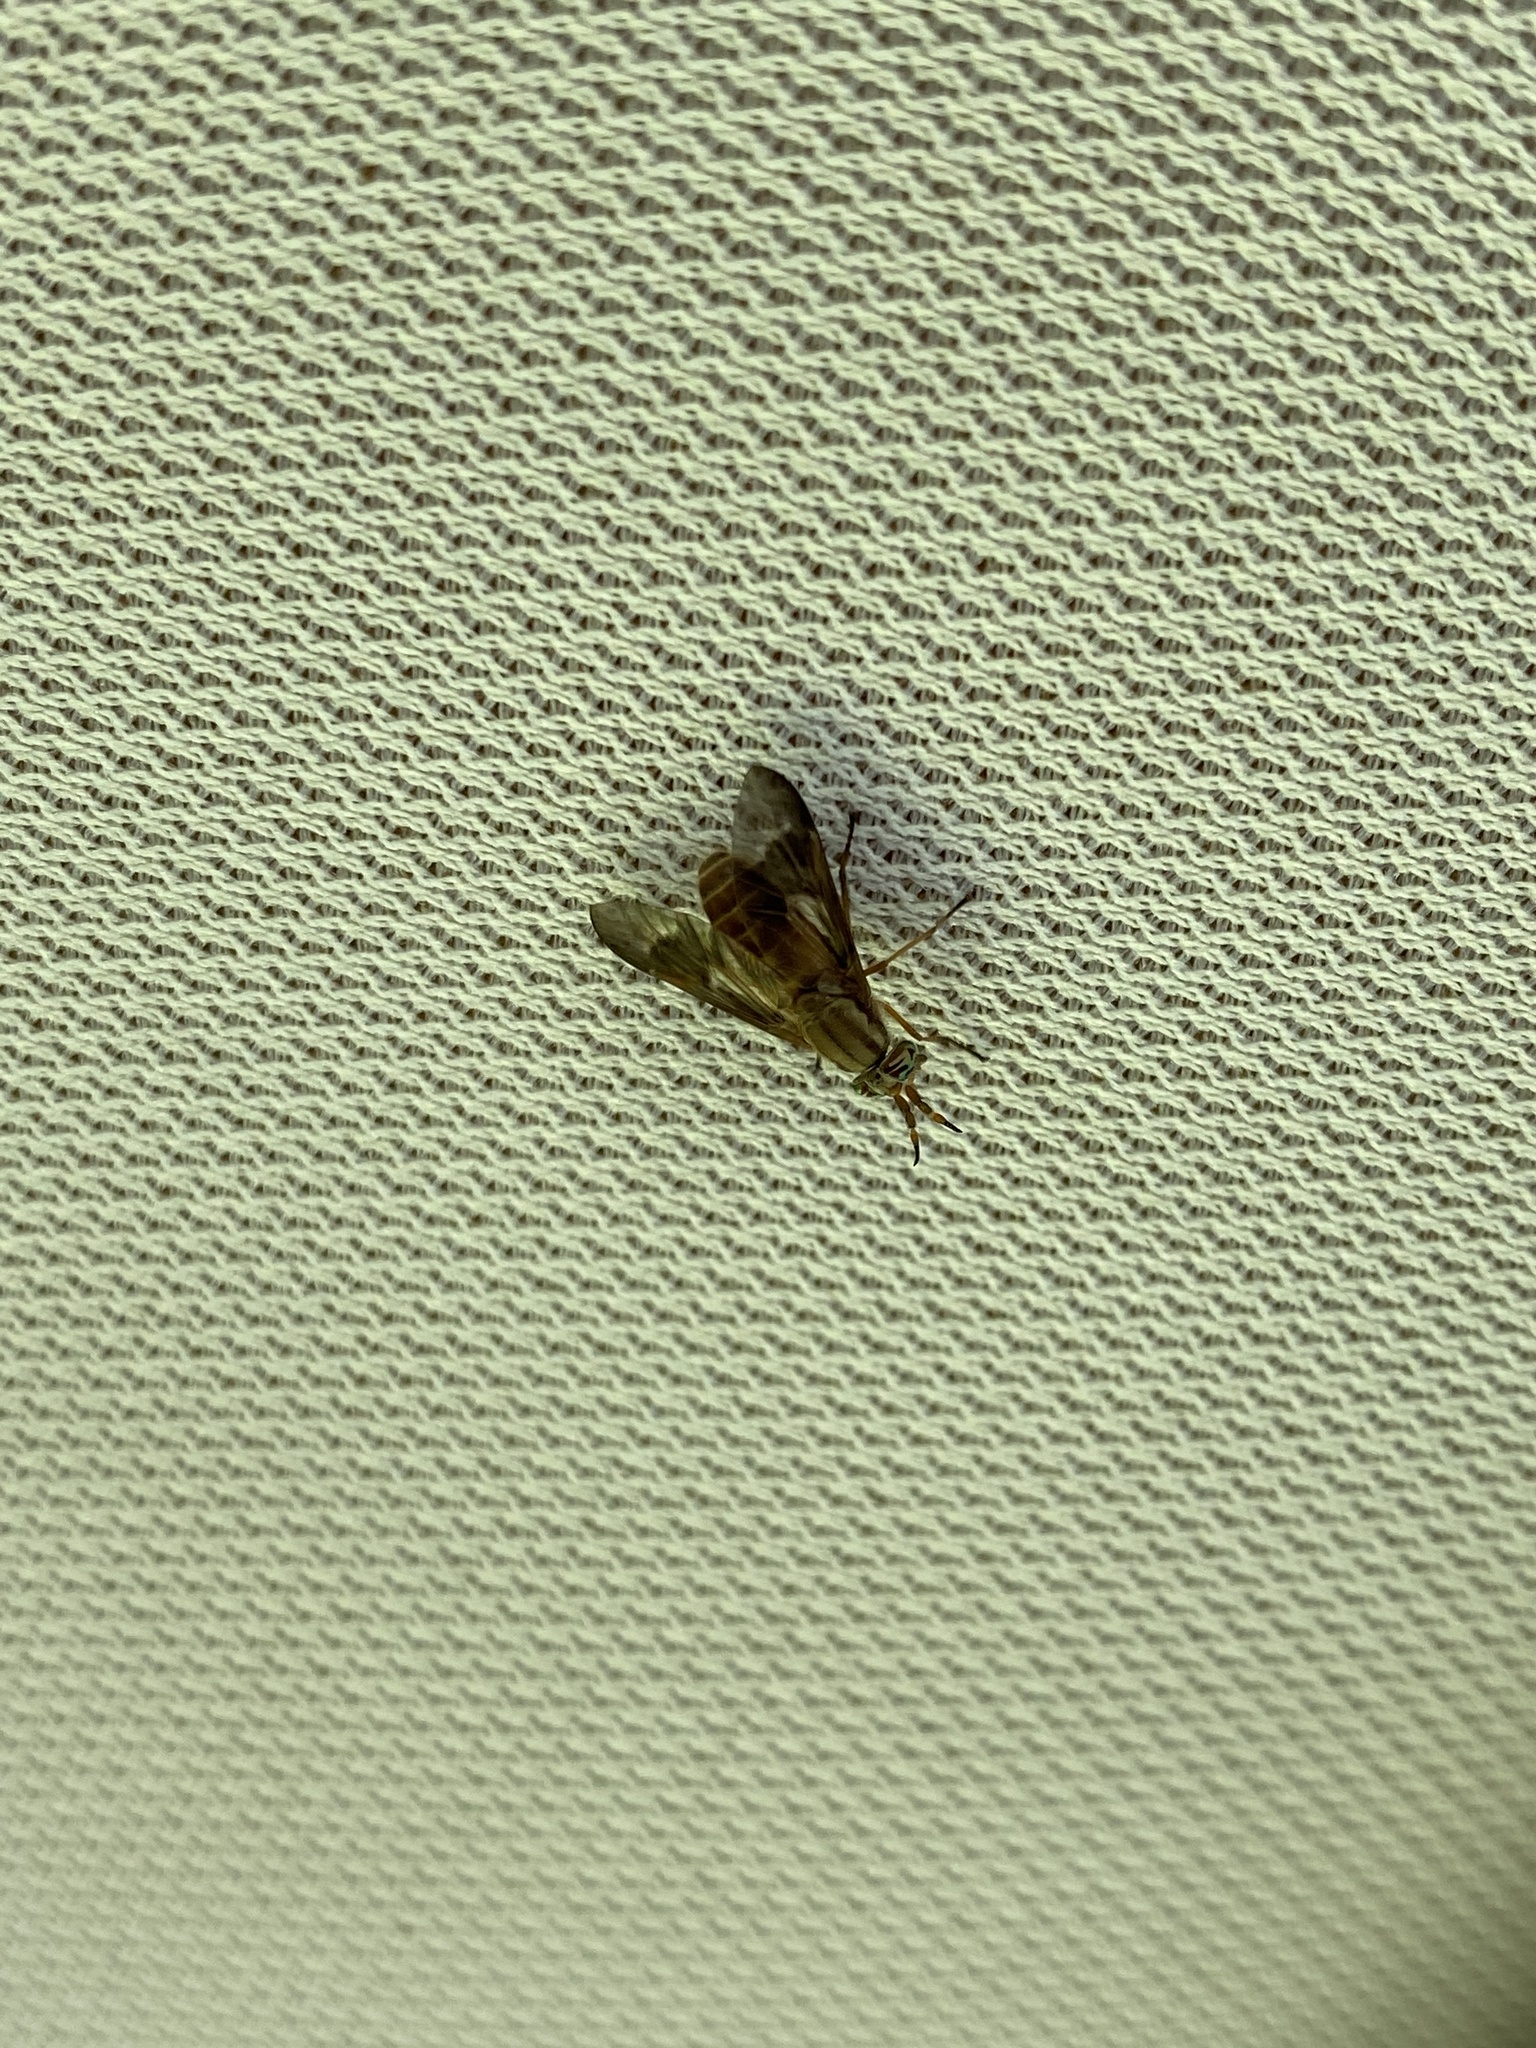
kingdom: Animalia
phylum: Arthropoda
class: Insecta
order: Diptera
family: Tabanidae
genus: Chrysops
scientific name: Chrysops brunneus
